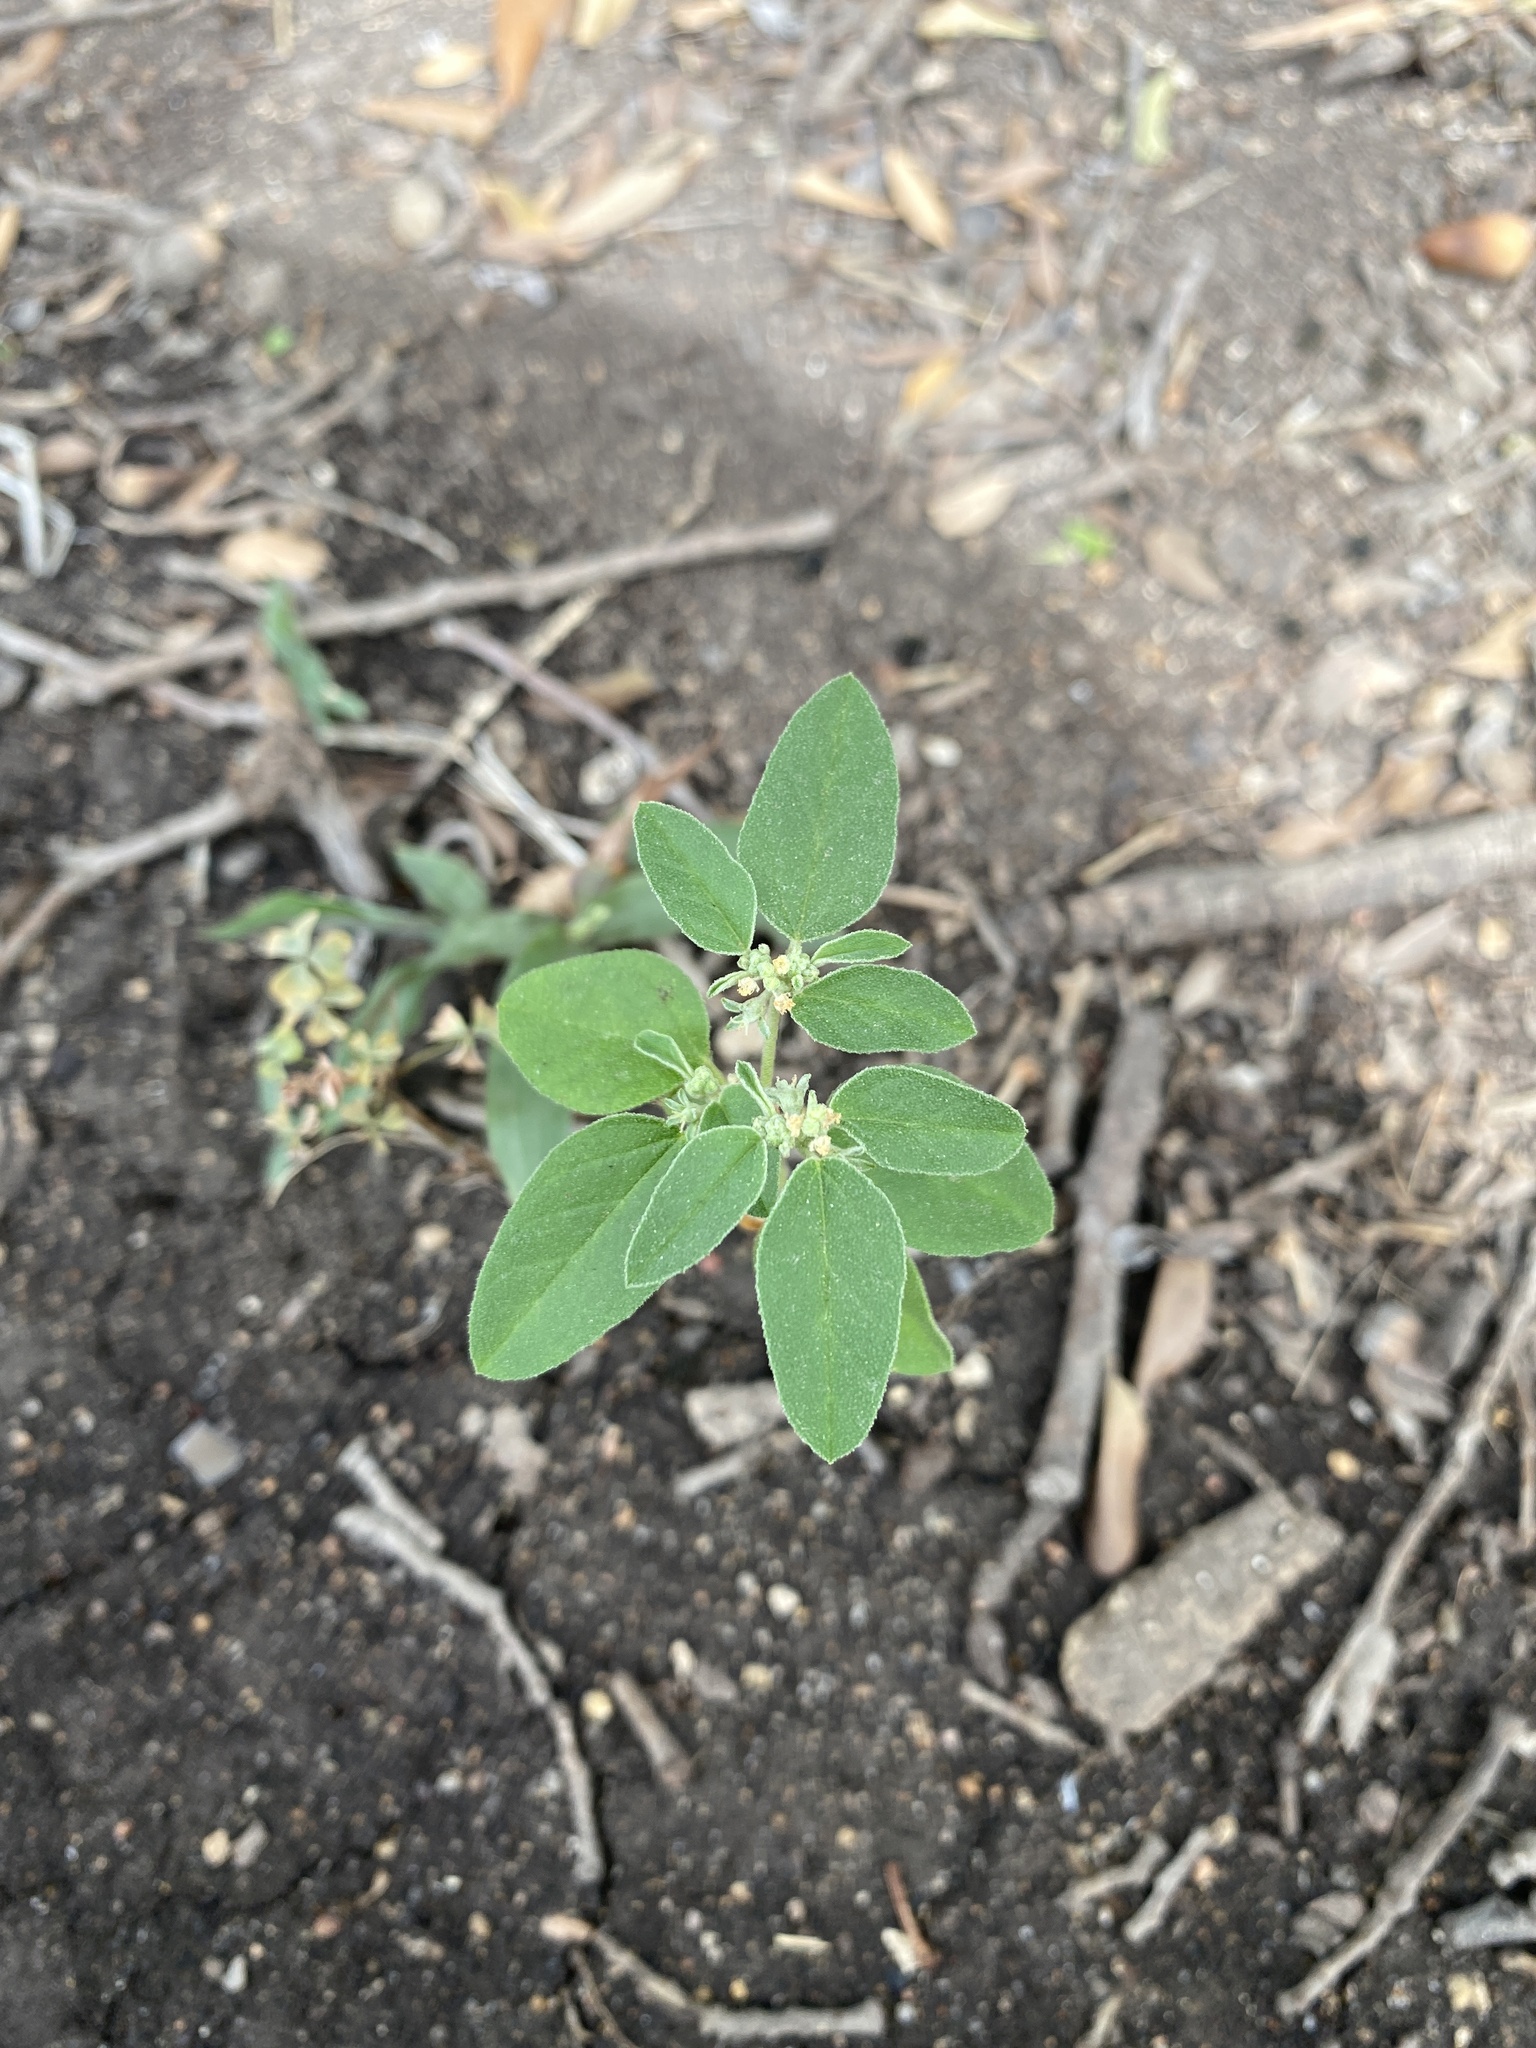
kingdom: Plantae
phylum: Tracheophyta
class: Magnoliopsida
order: Malpighiales
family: Euphorbiaceae
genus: Croton
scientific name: Croton monanthogynus
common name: One-seed croton
